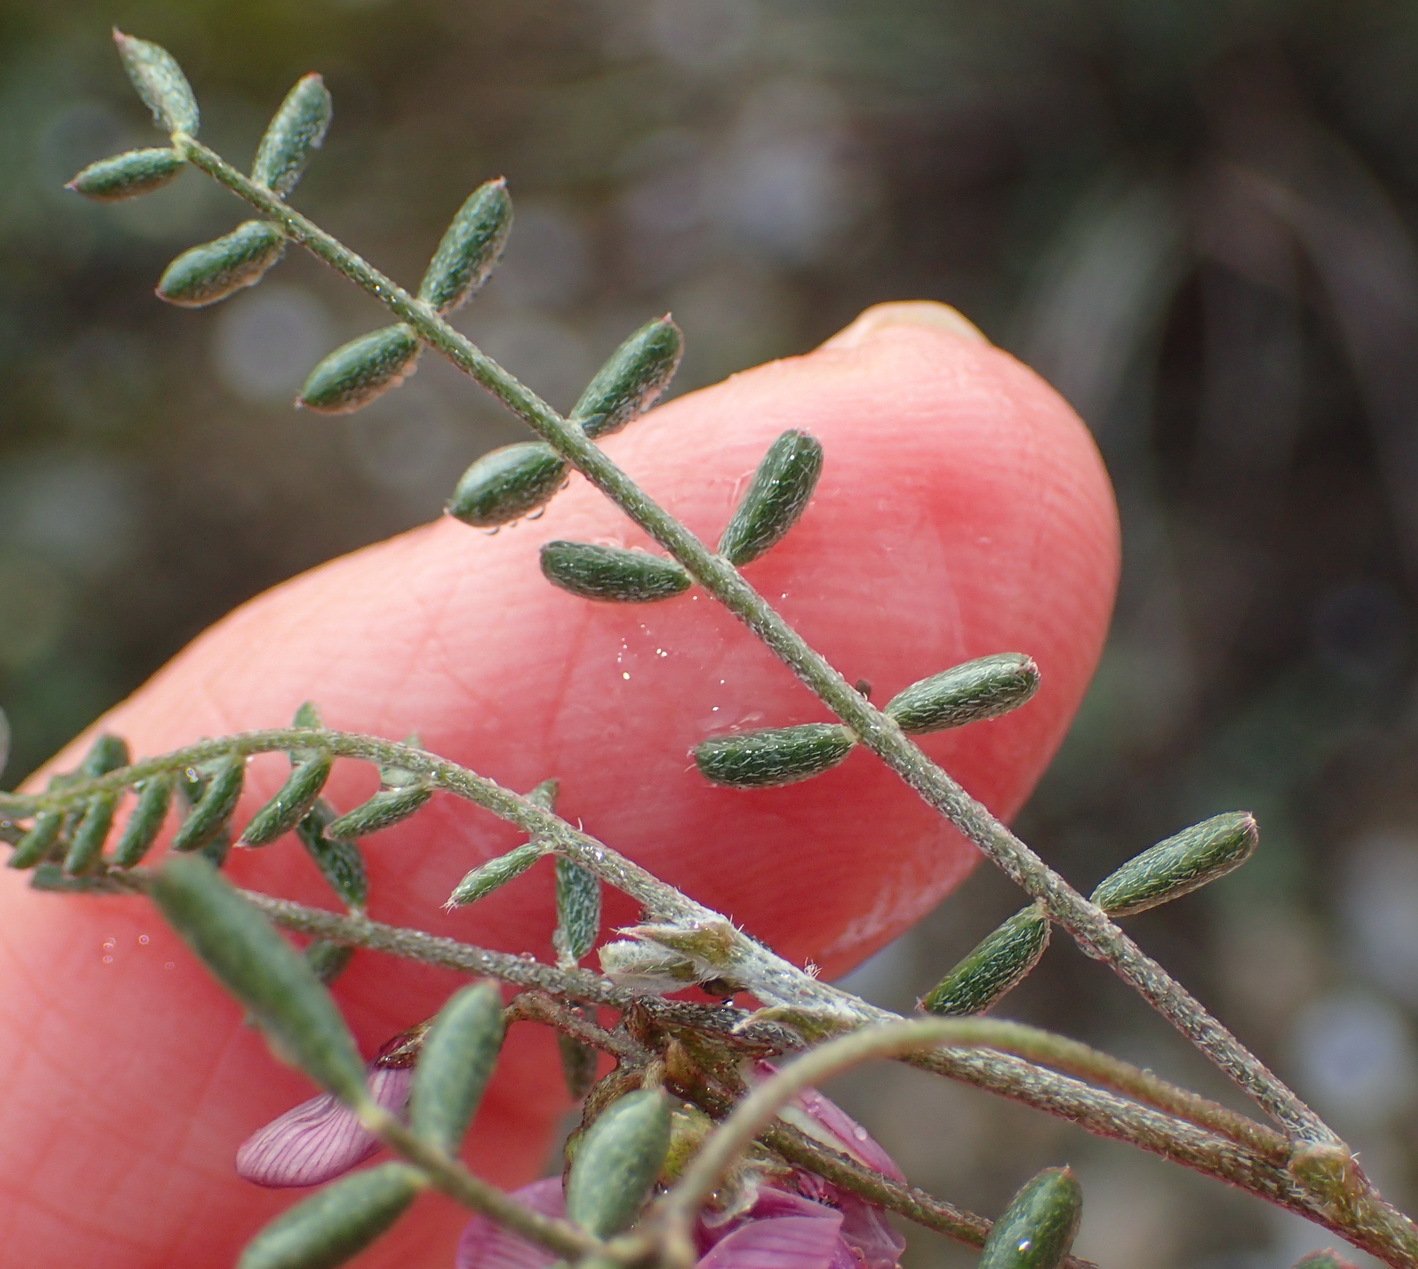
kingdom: Plantae
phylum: Tracheophyta
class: Magnoliopsida
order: Fabales
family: Fabaceae
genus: Lessertia
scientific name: Lessertia annularis
